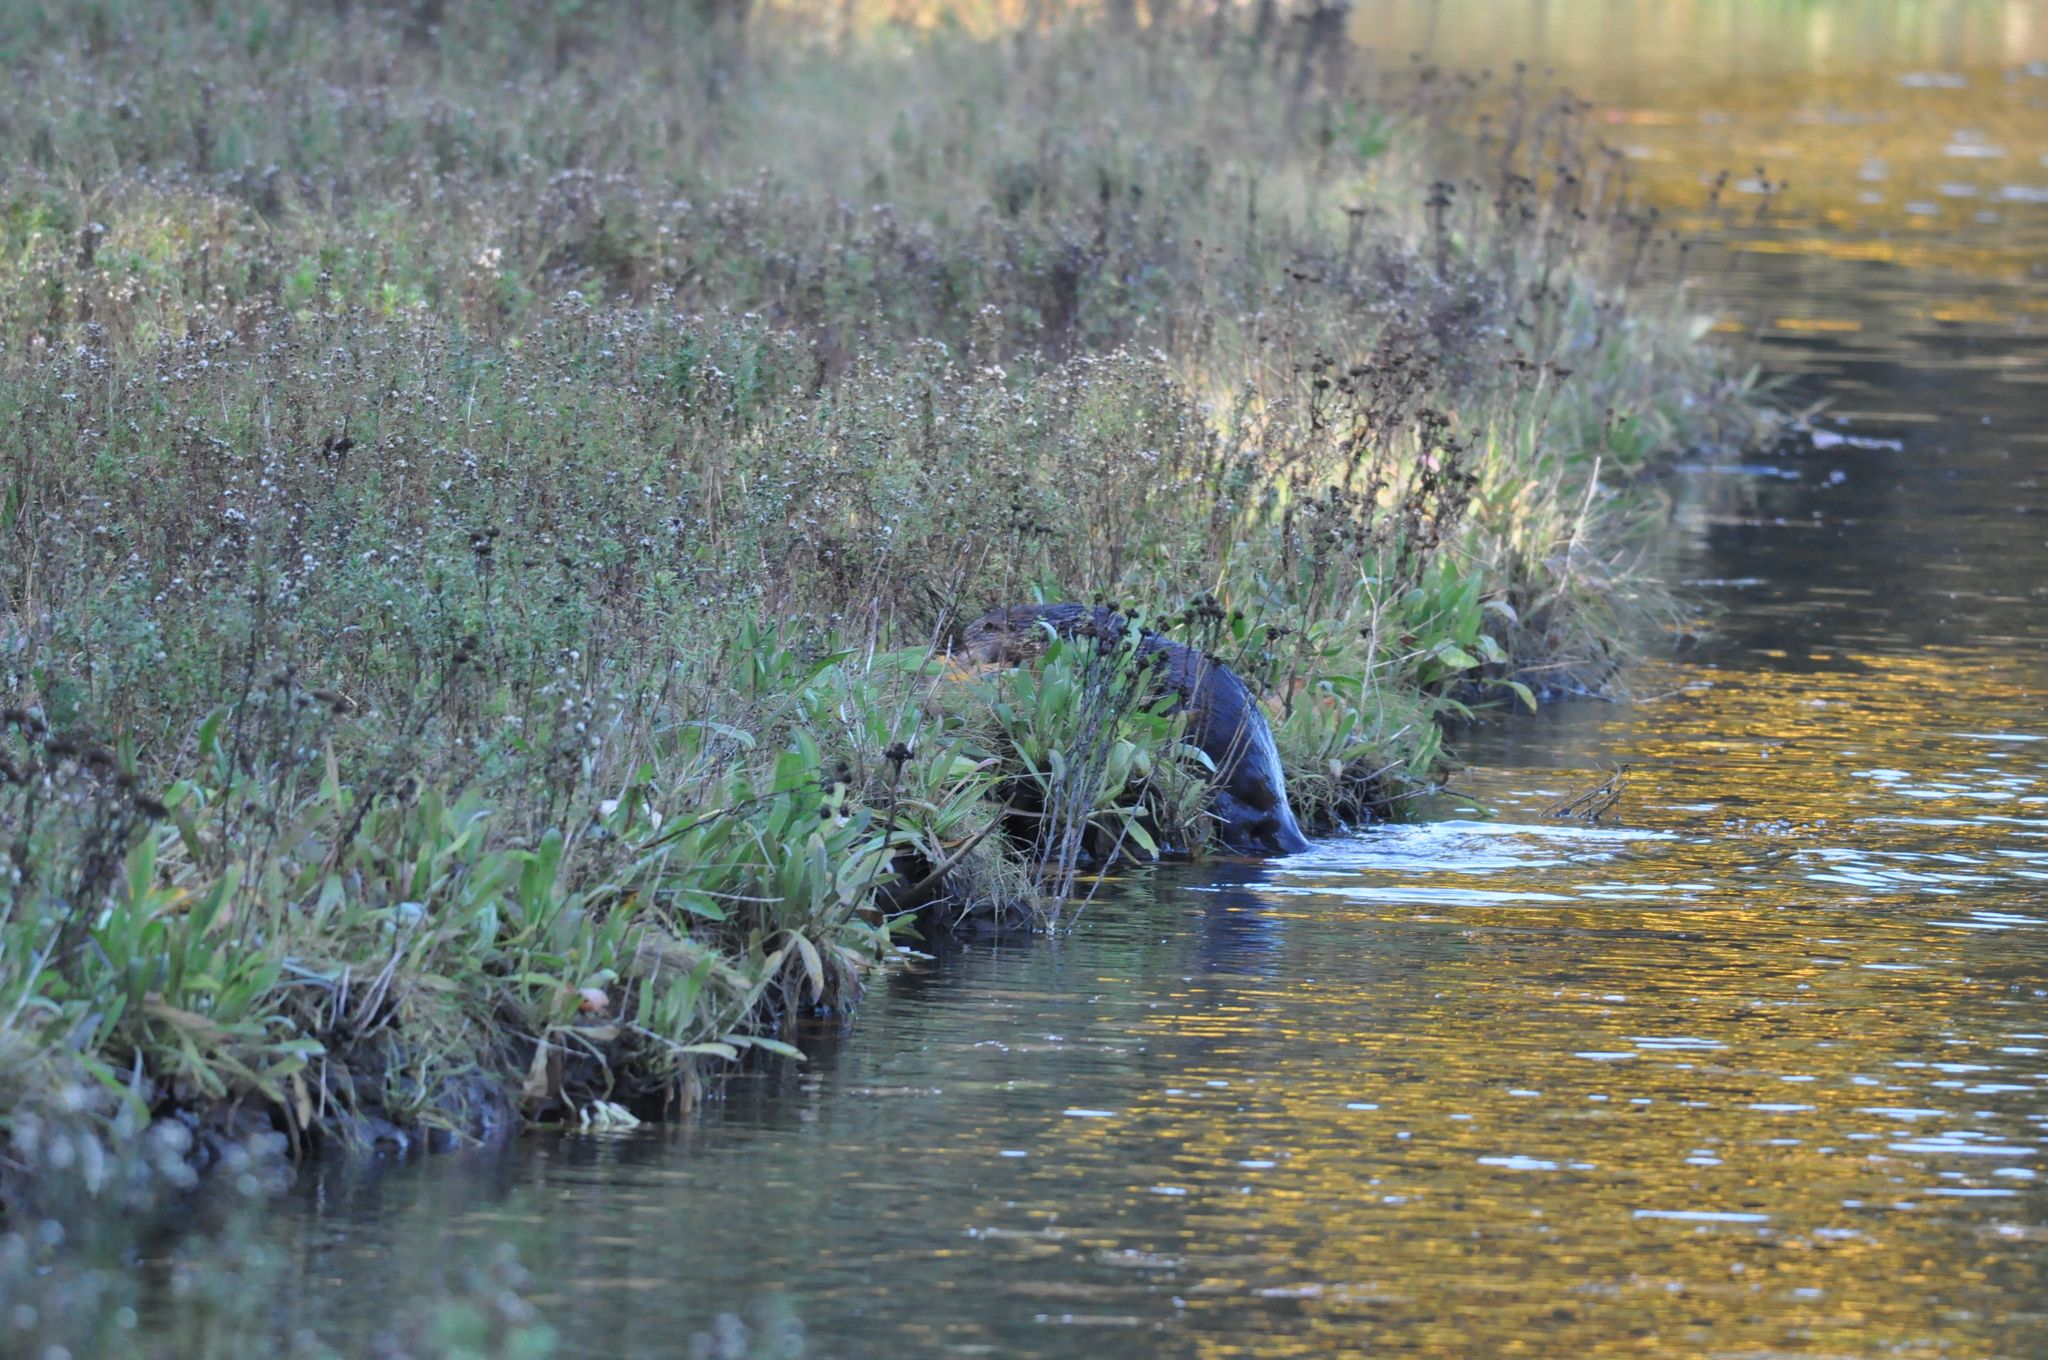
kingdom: Animalia
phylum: Chordata
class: Mammalia
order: Carnivora
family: Mustelidae
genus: Lontra
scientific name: Lontra canadensis
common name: North american river otter
